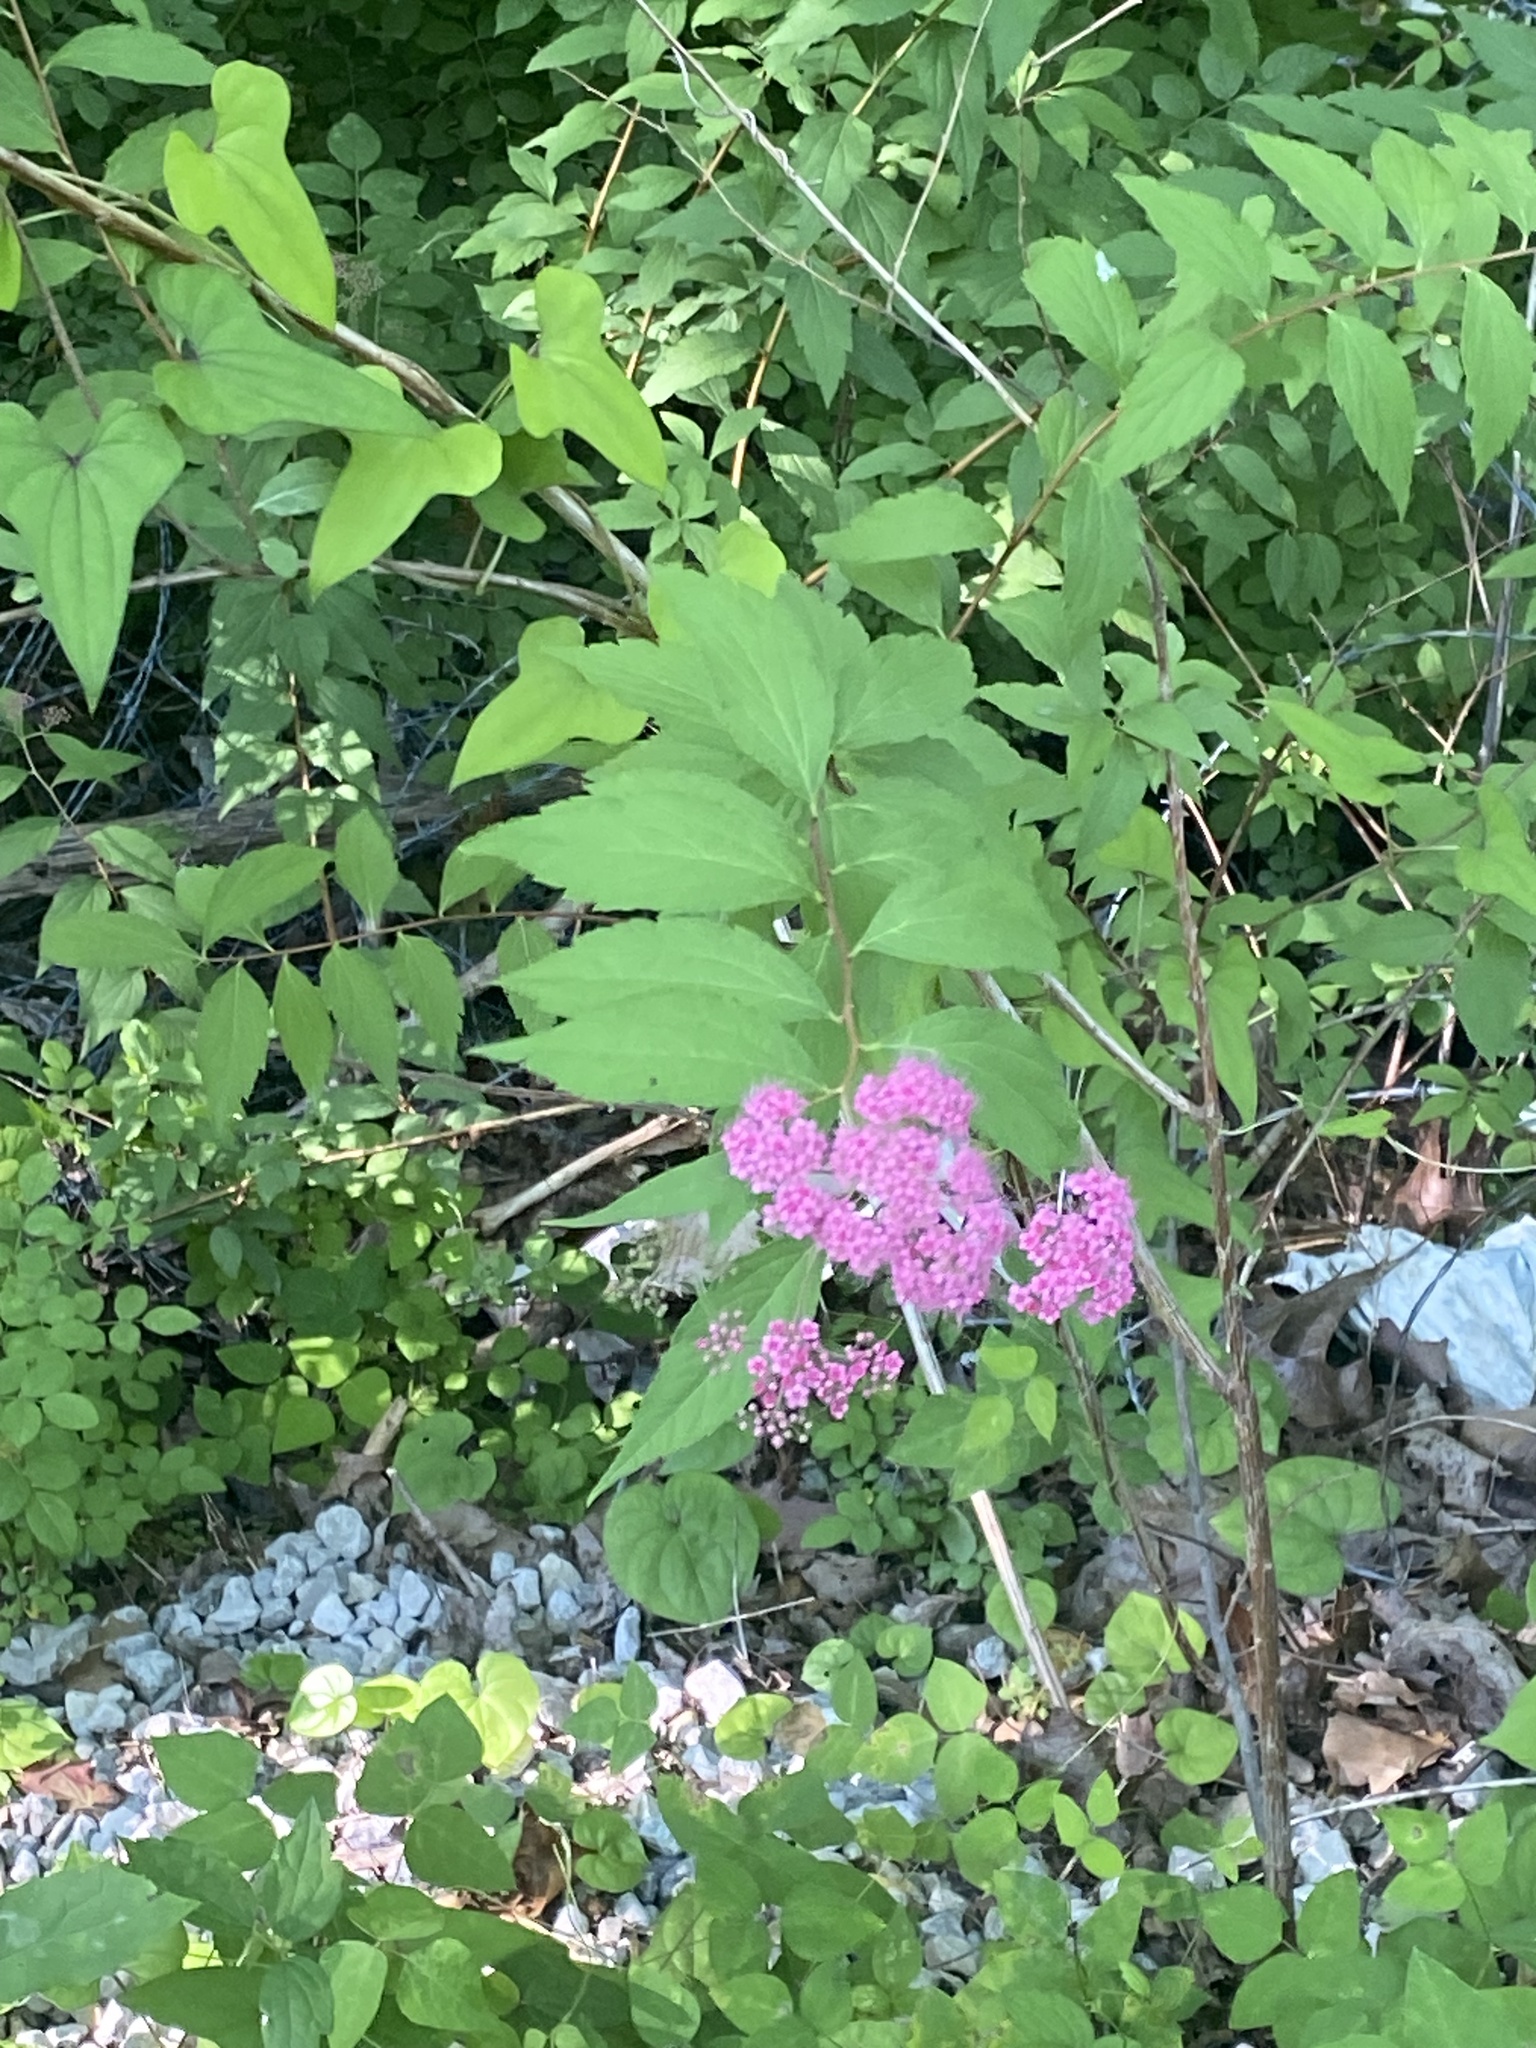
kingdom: Plantae
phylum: Tracheophyta
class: Magnoliopsida
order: Rosales
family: Rosaceae
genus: Spiraea
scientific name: Spiraea japonica
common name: Japanese spiraea
